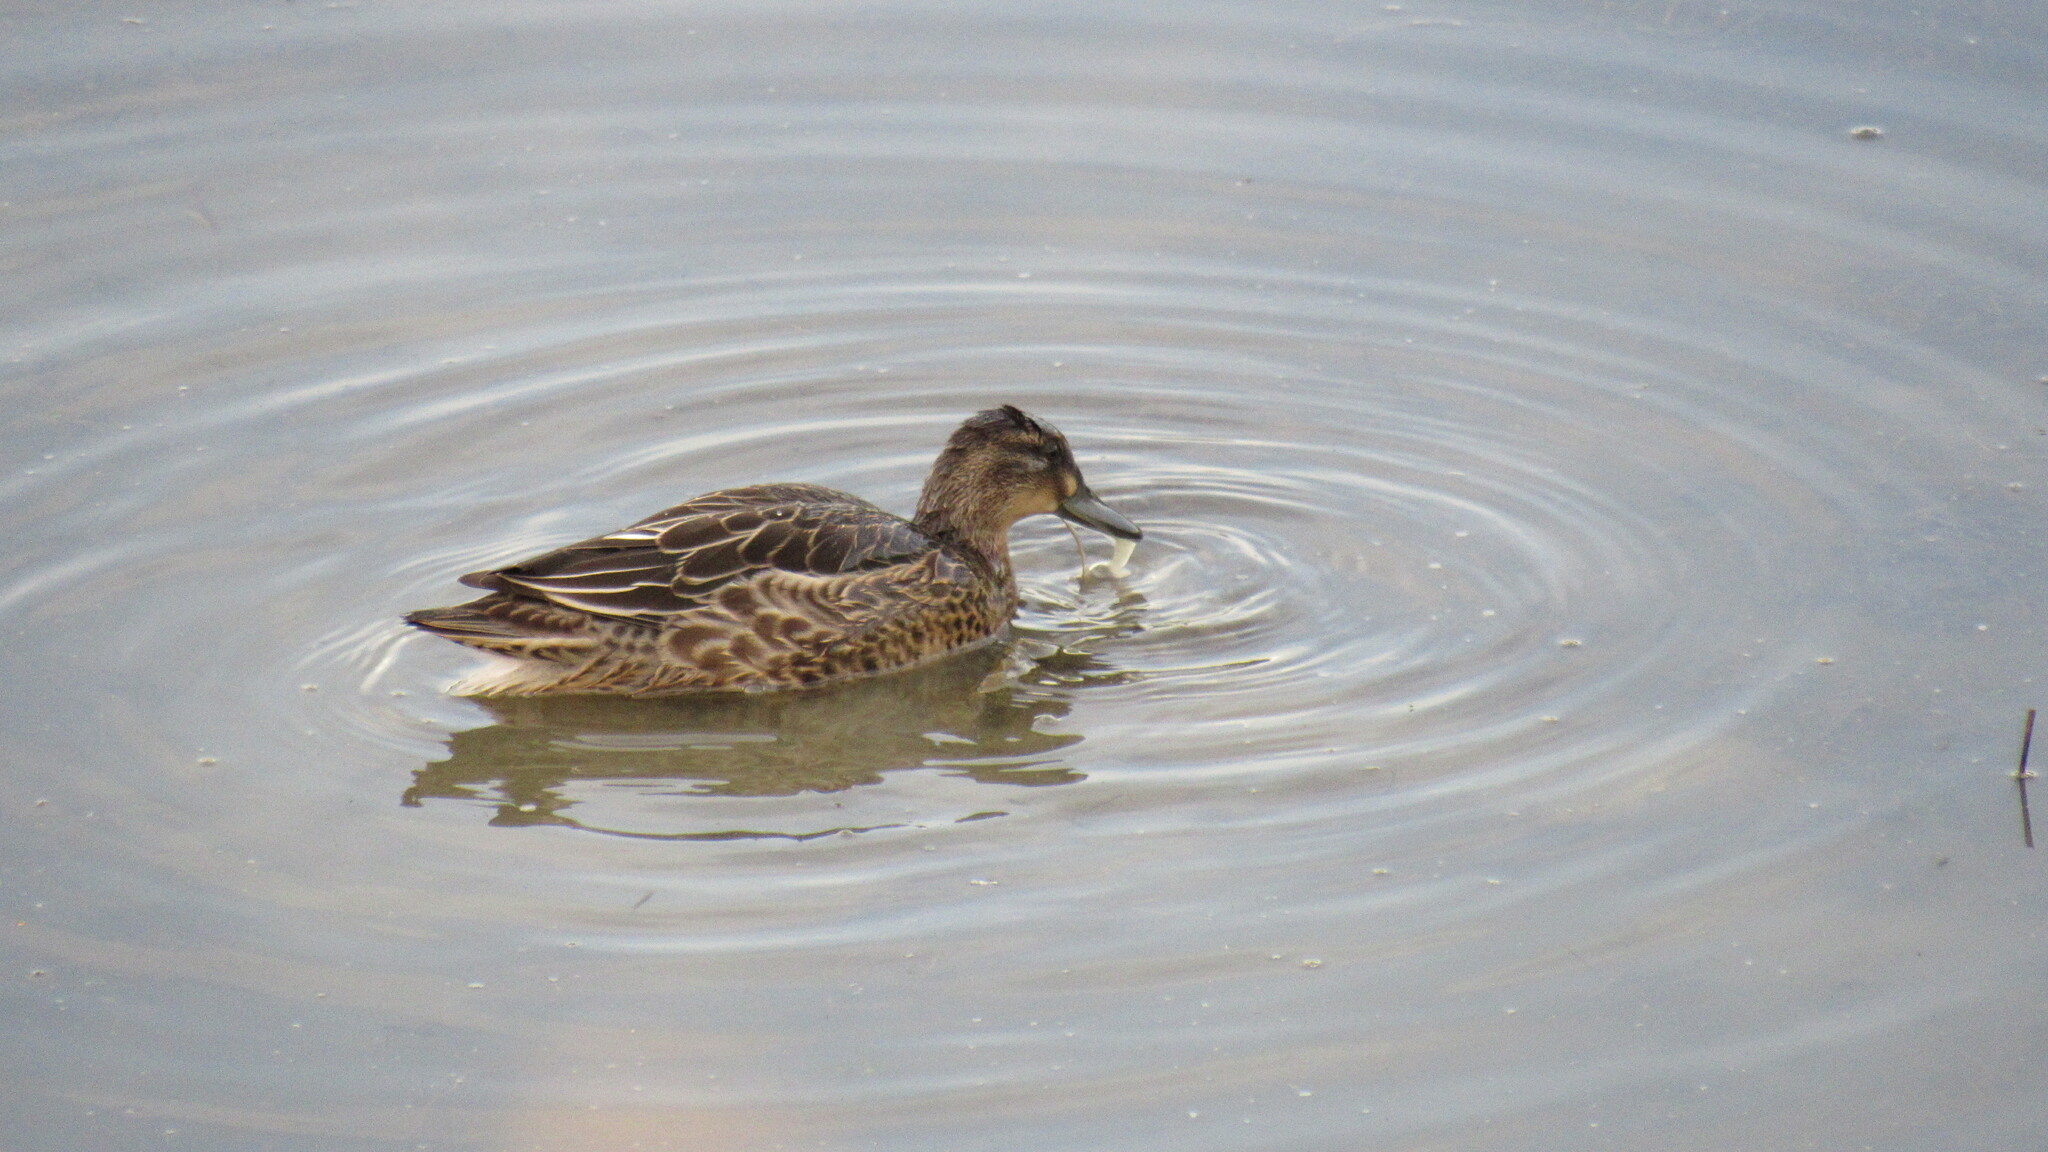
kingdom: Animalia
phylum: Chordata
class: Aves
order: Anseriformes
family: Anatidae
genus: Anas
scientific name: Anas crecca
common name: Eurasian teal
